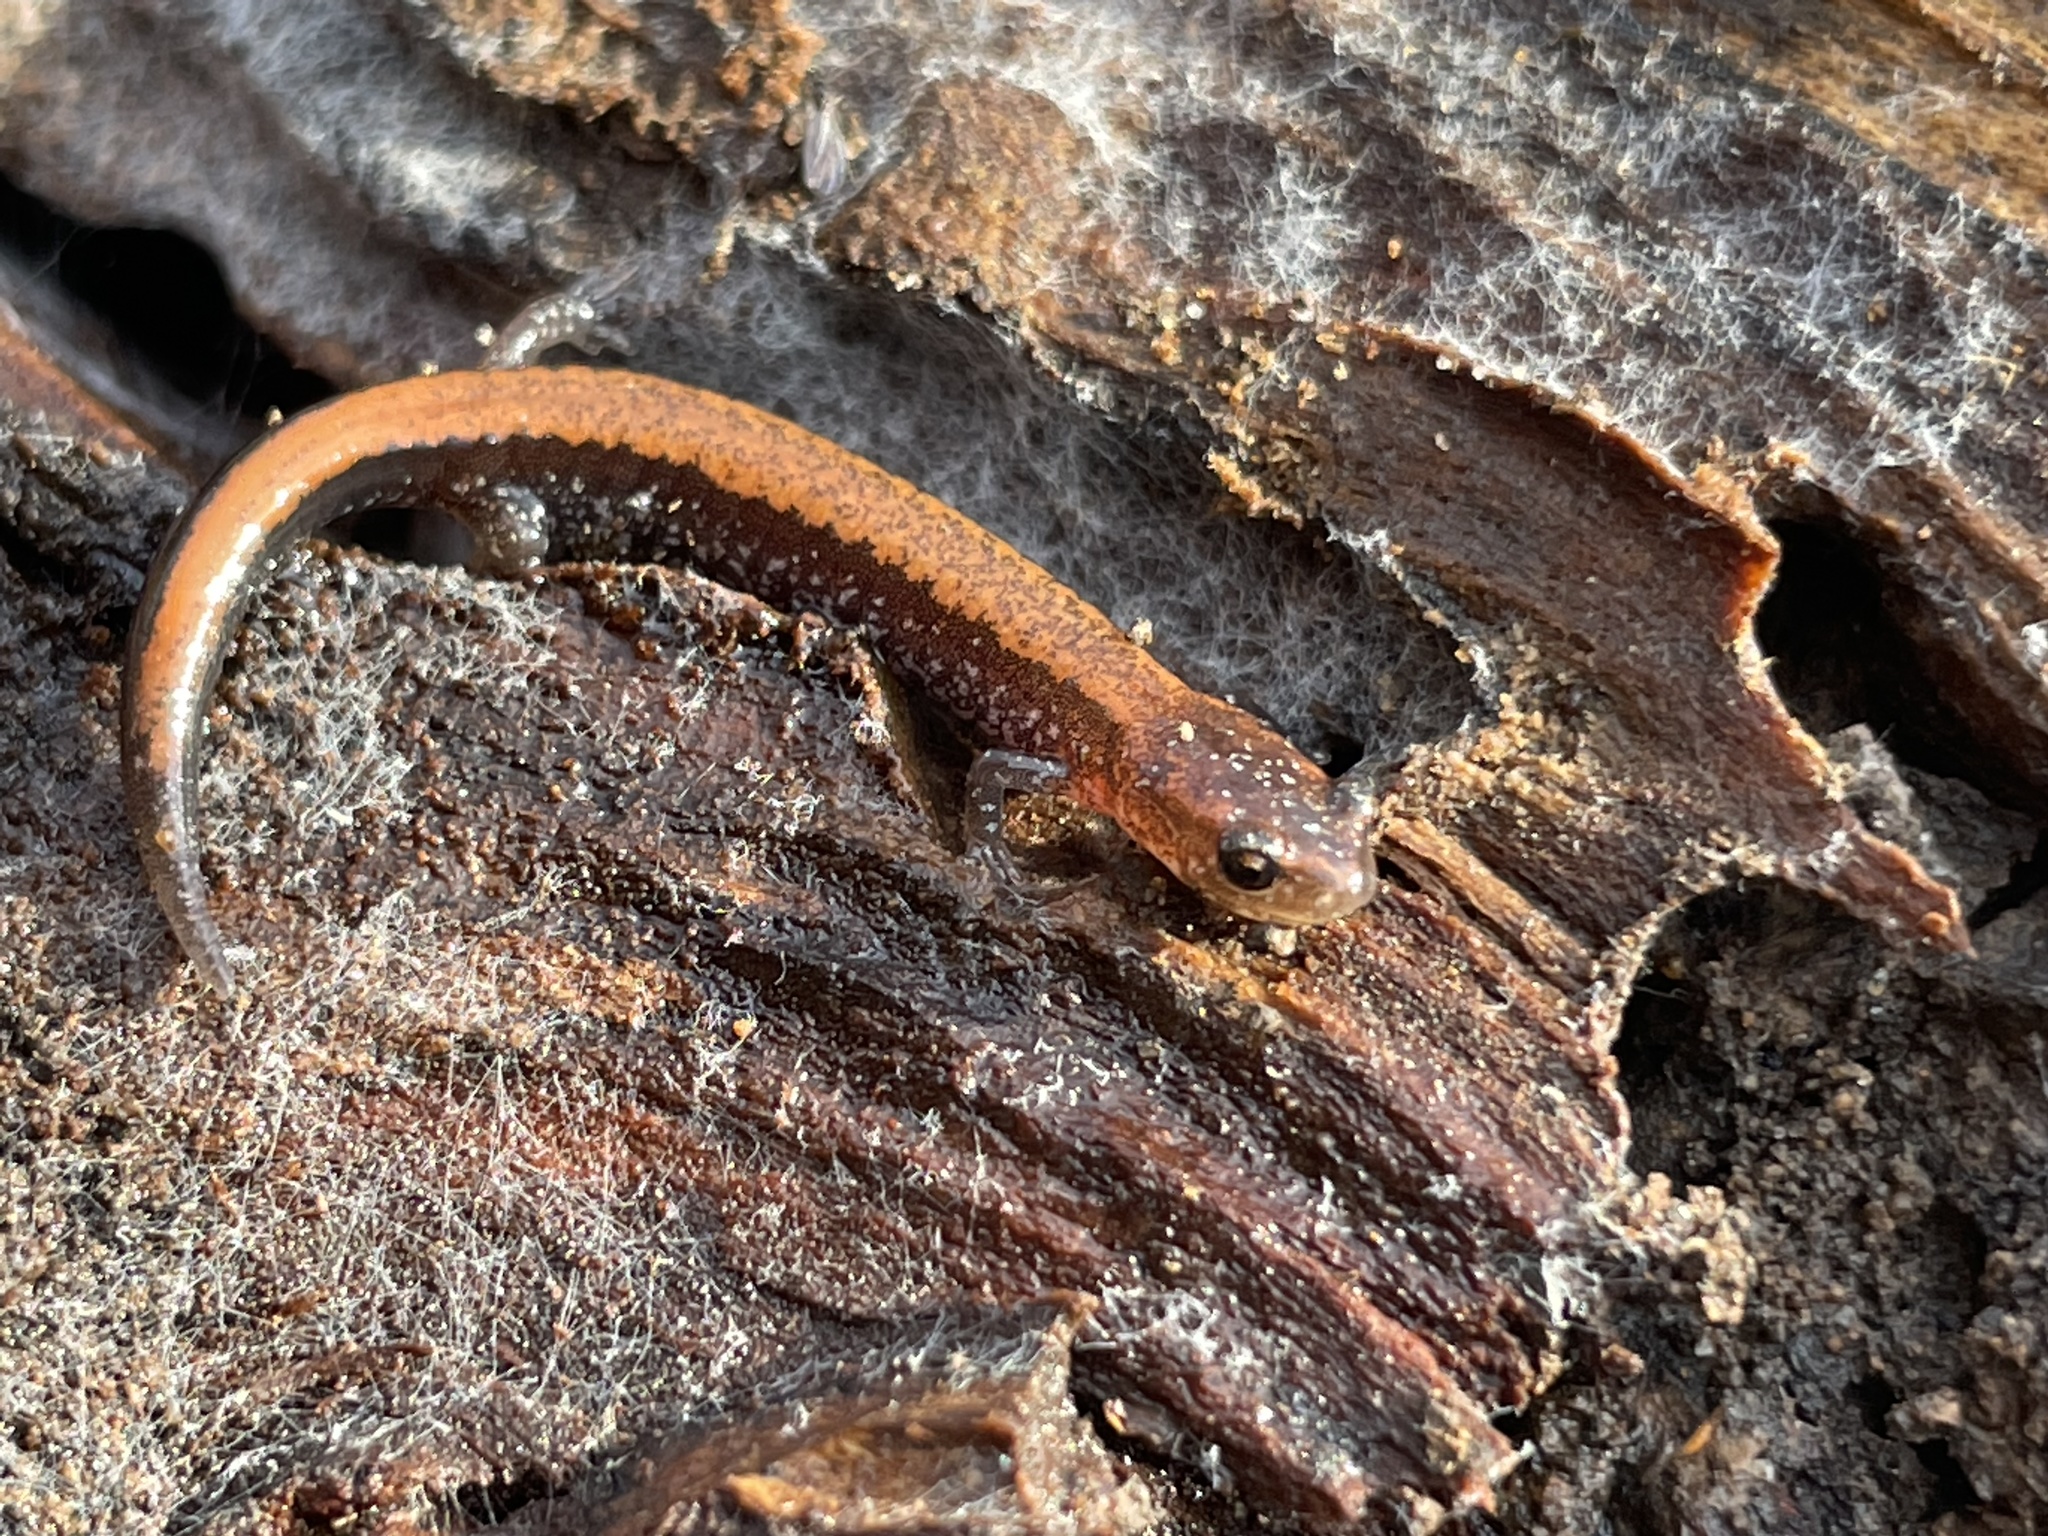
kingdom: Animalia
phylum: Chordata
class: Amphibia
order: Caudata
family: Plethodontidae
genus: Plethodon
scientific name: Plethodon cinereus
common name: Redback salamander
